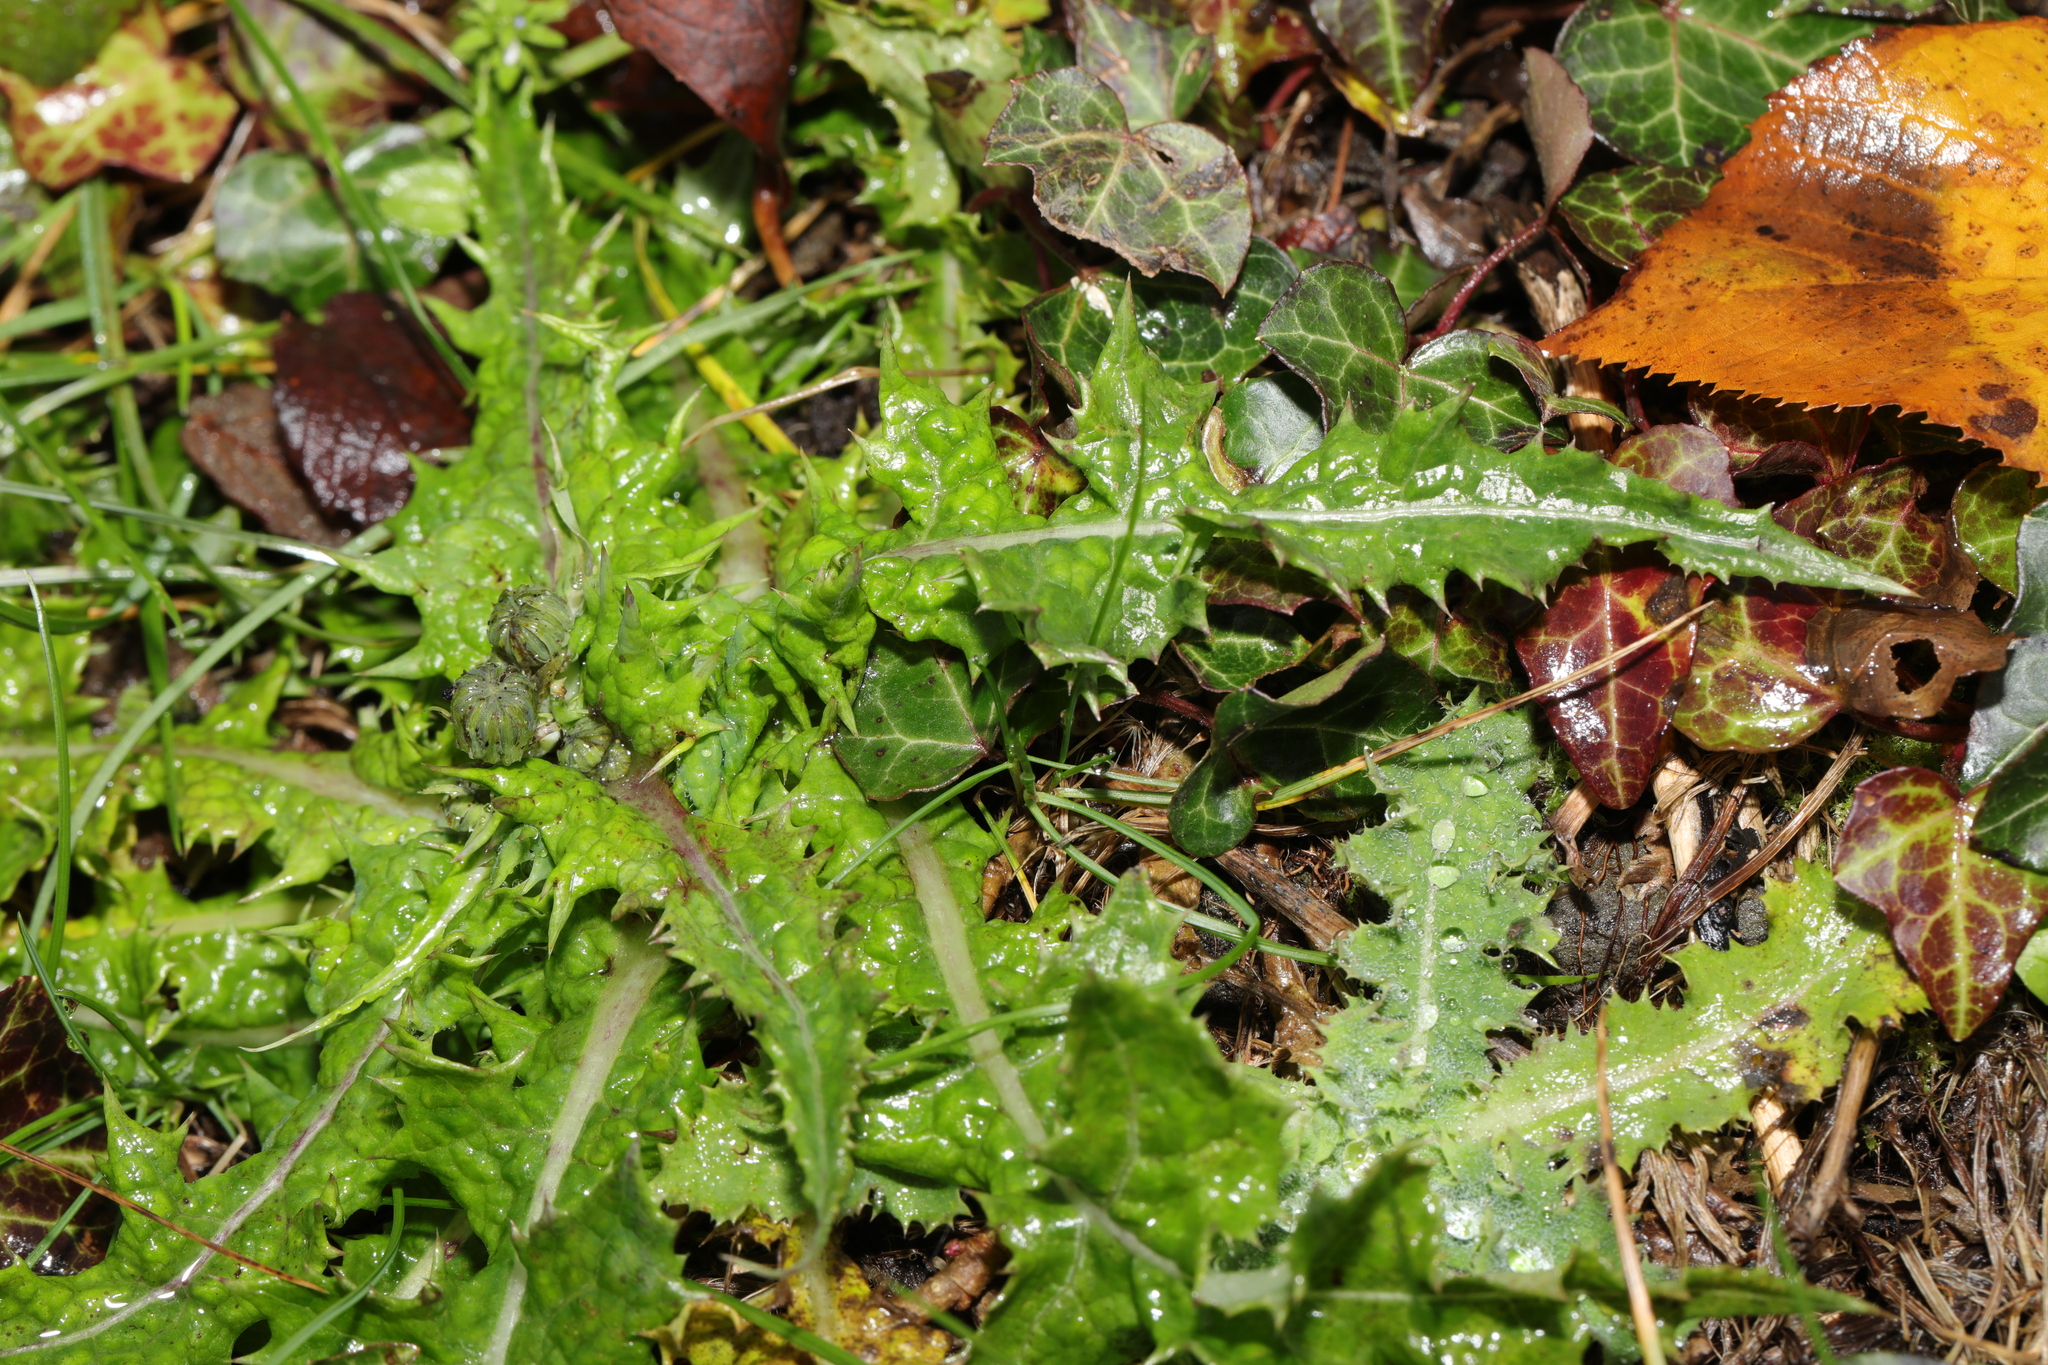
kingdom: Plantae
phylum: Tracheophyta
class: Magnoliopsida
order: Asterales
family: Asteraceae
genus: Sonchus
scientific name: Sonchus asper
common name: Prickly sow-thistle
